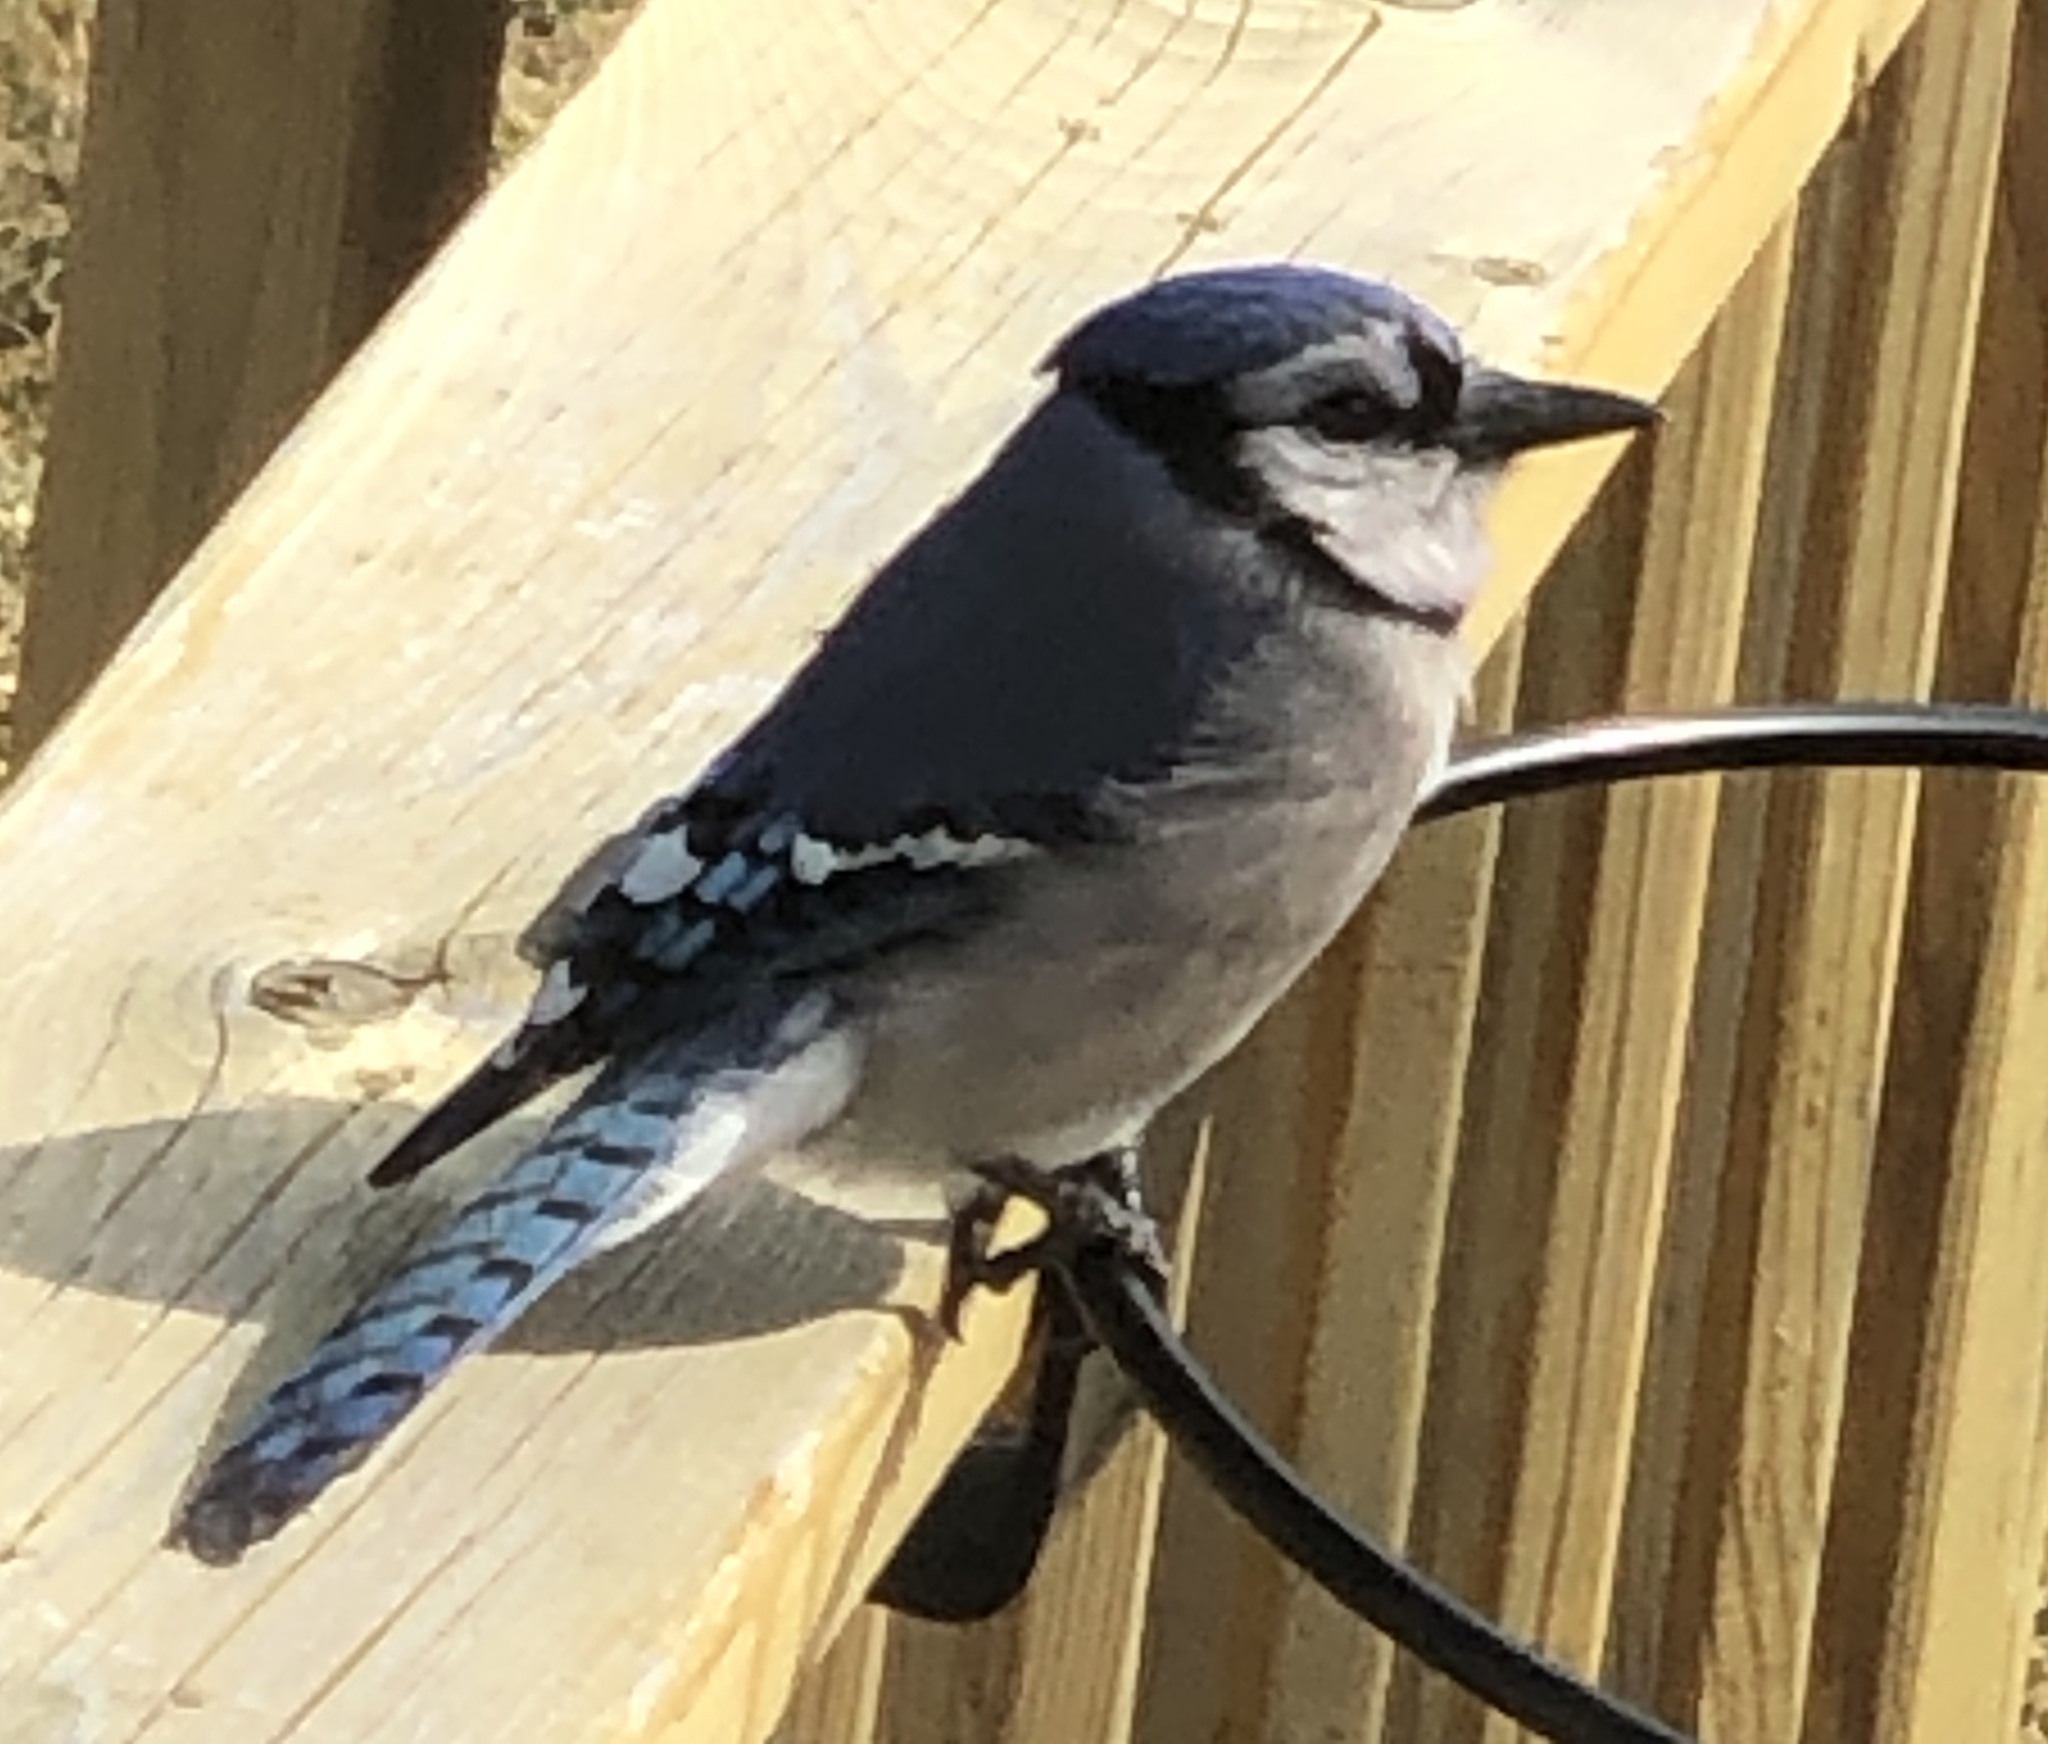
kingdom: Animalia
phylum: Chordata
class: Aves
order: Passeriformes
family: Corvidae
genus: Cyanocitta
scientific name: Cyanocitta cristata
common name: Blue jay
